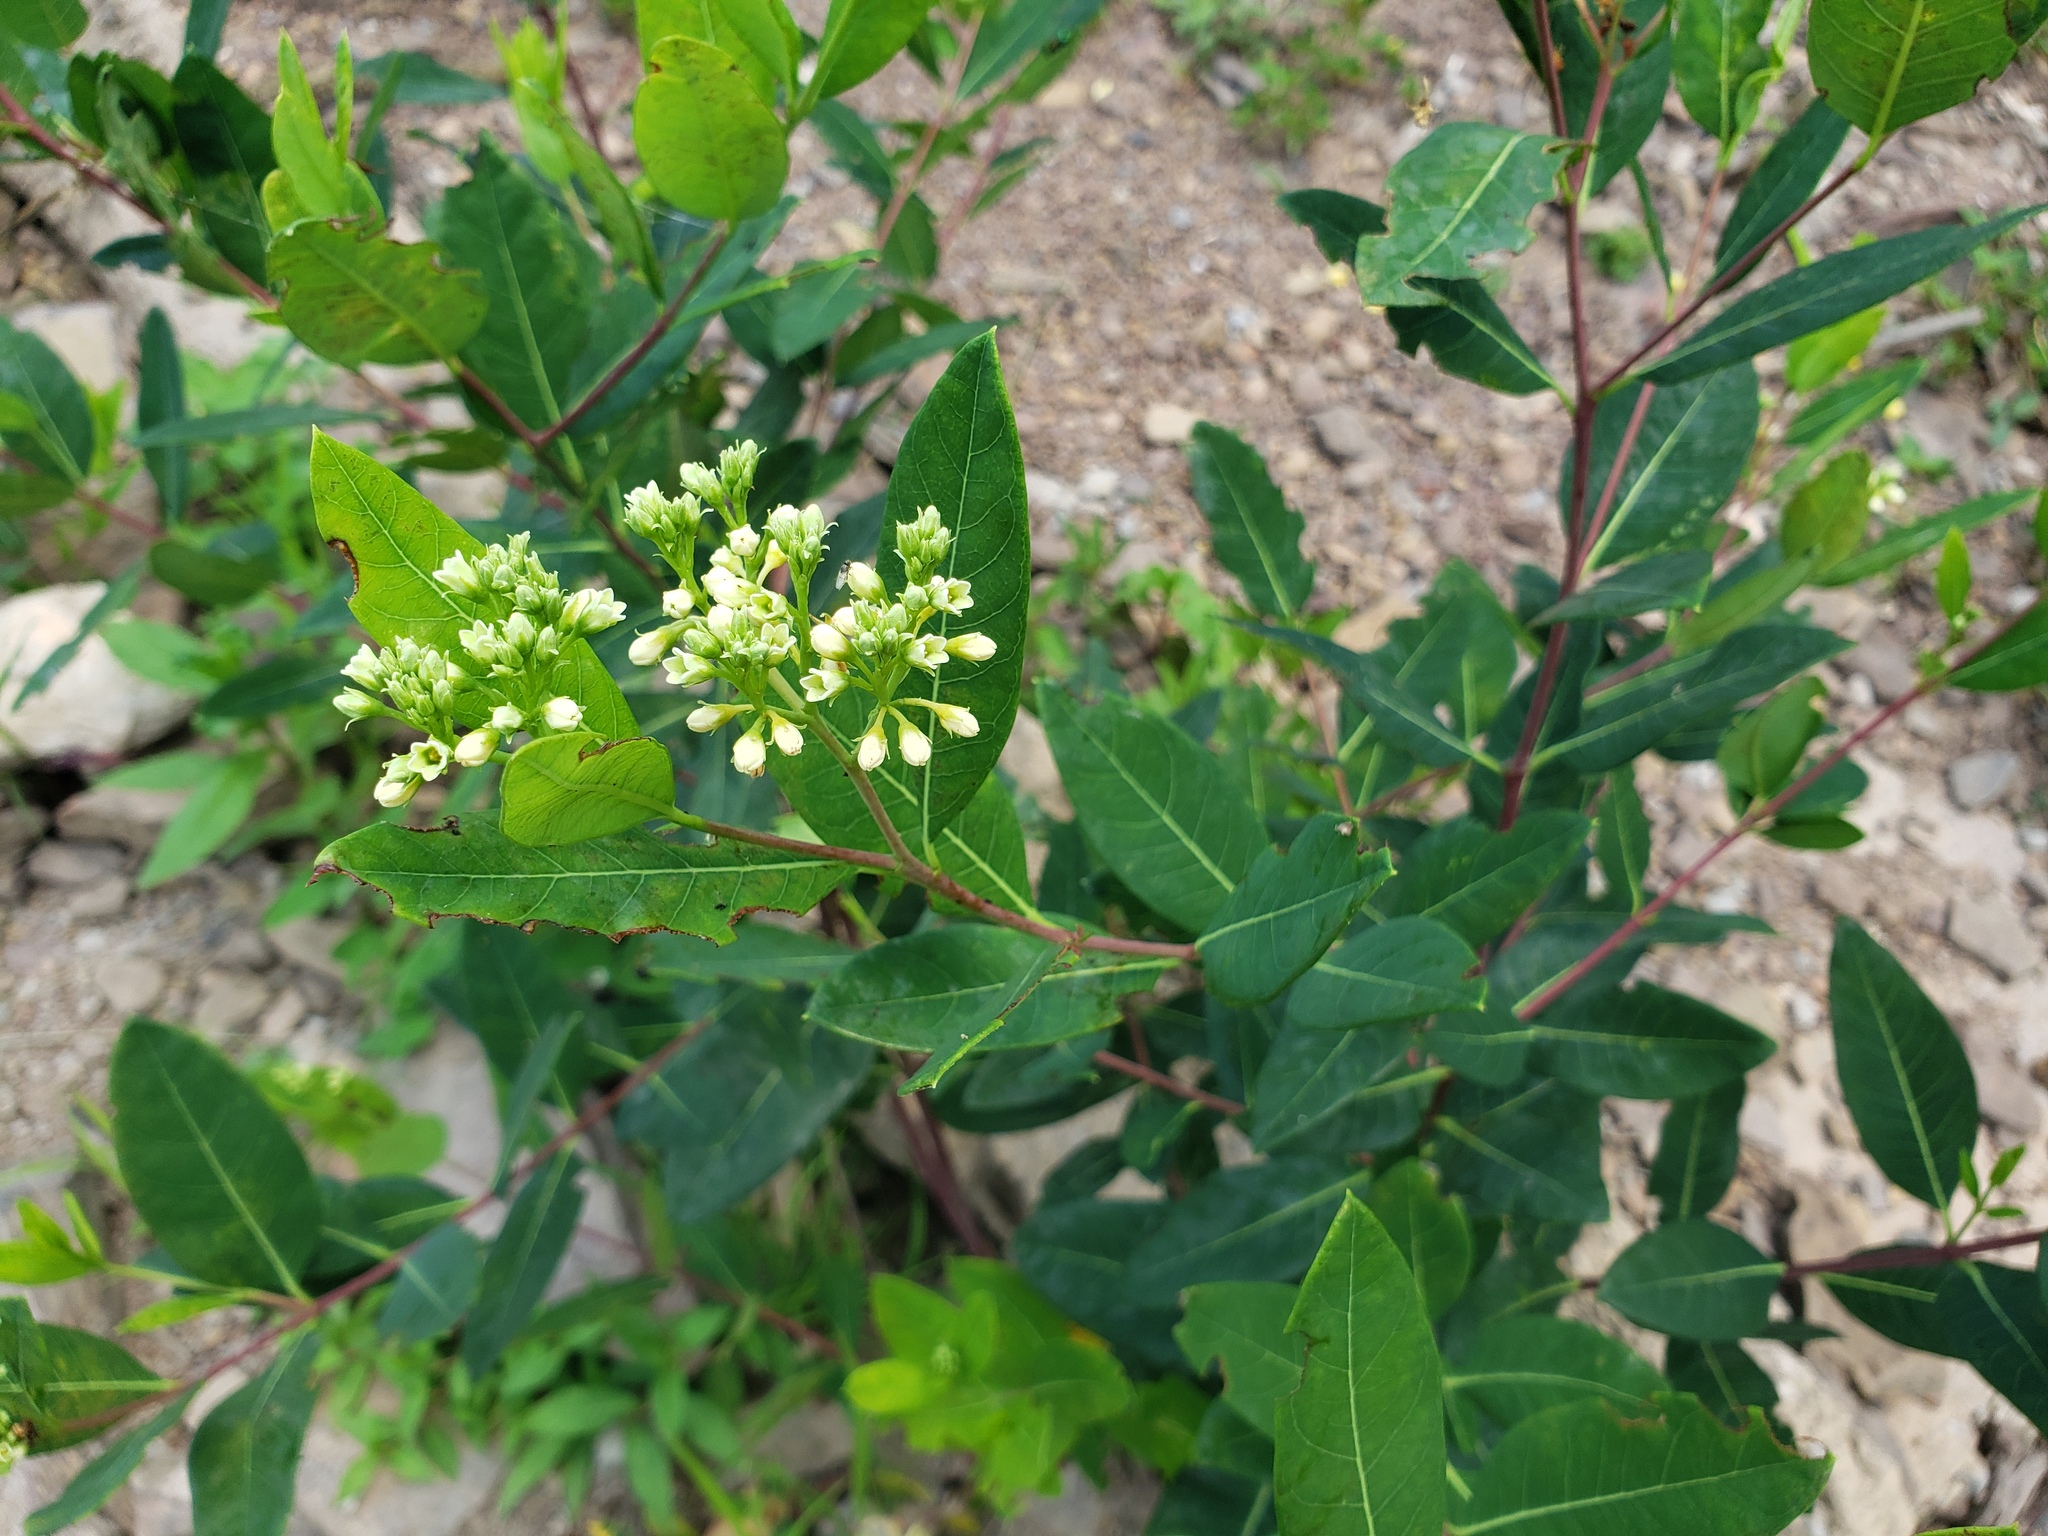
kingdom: Plantae
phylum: Tracheophyta
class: Magnoliopsida
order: Gentianales
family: Apocynaceae
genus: Apocynum
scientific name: Apocynum cannabinum
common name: Hemp dogbane
